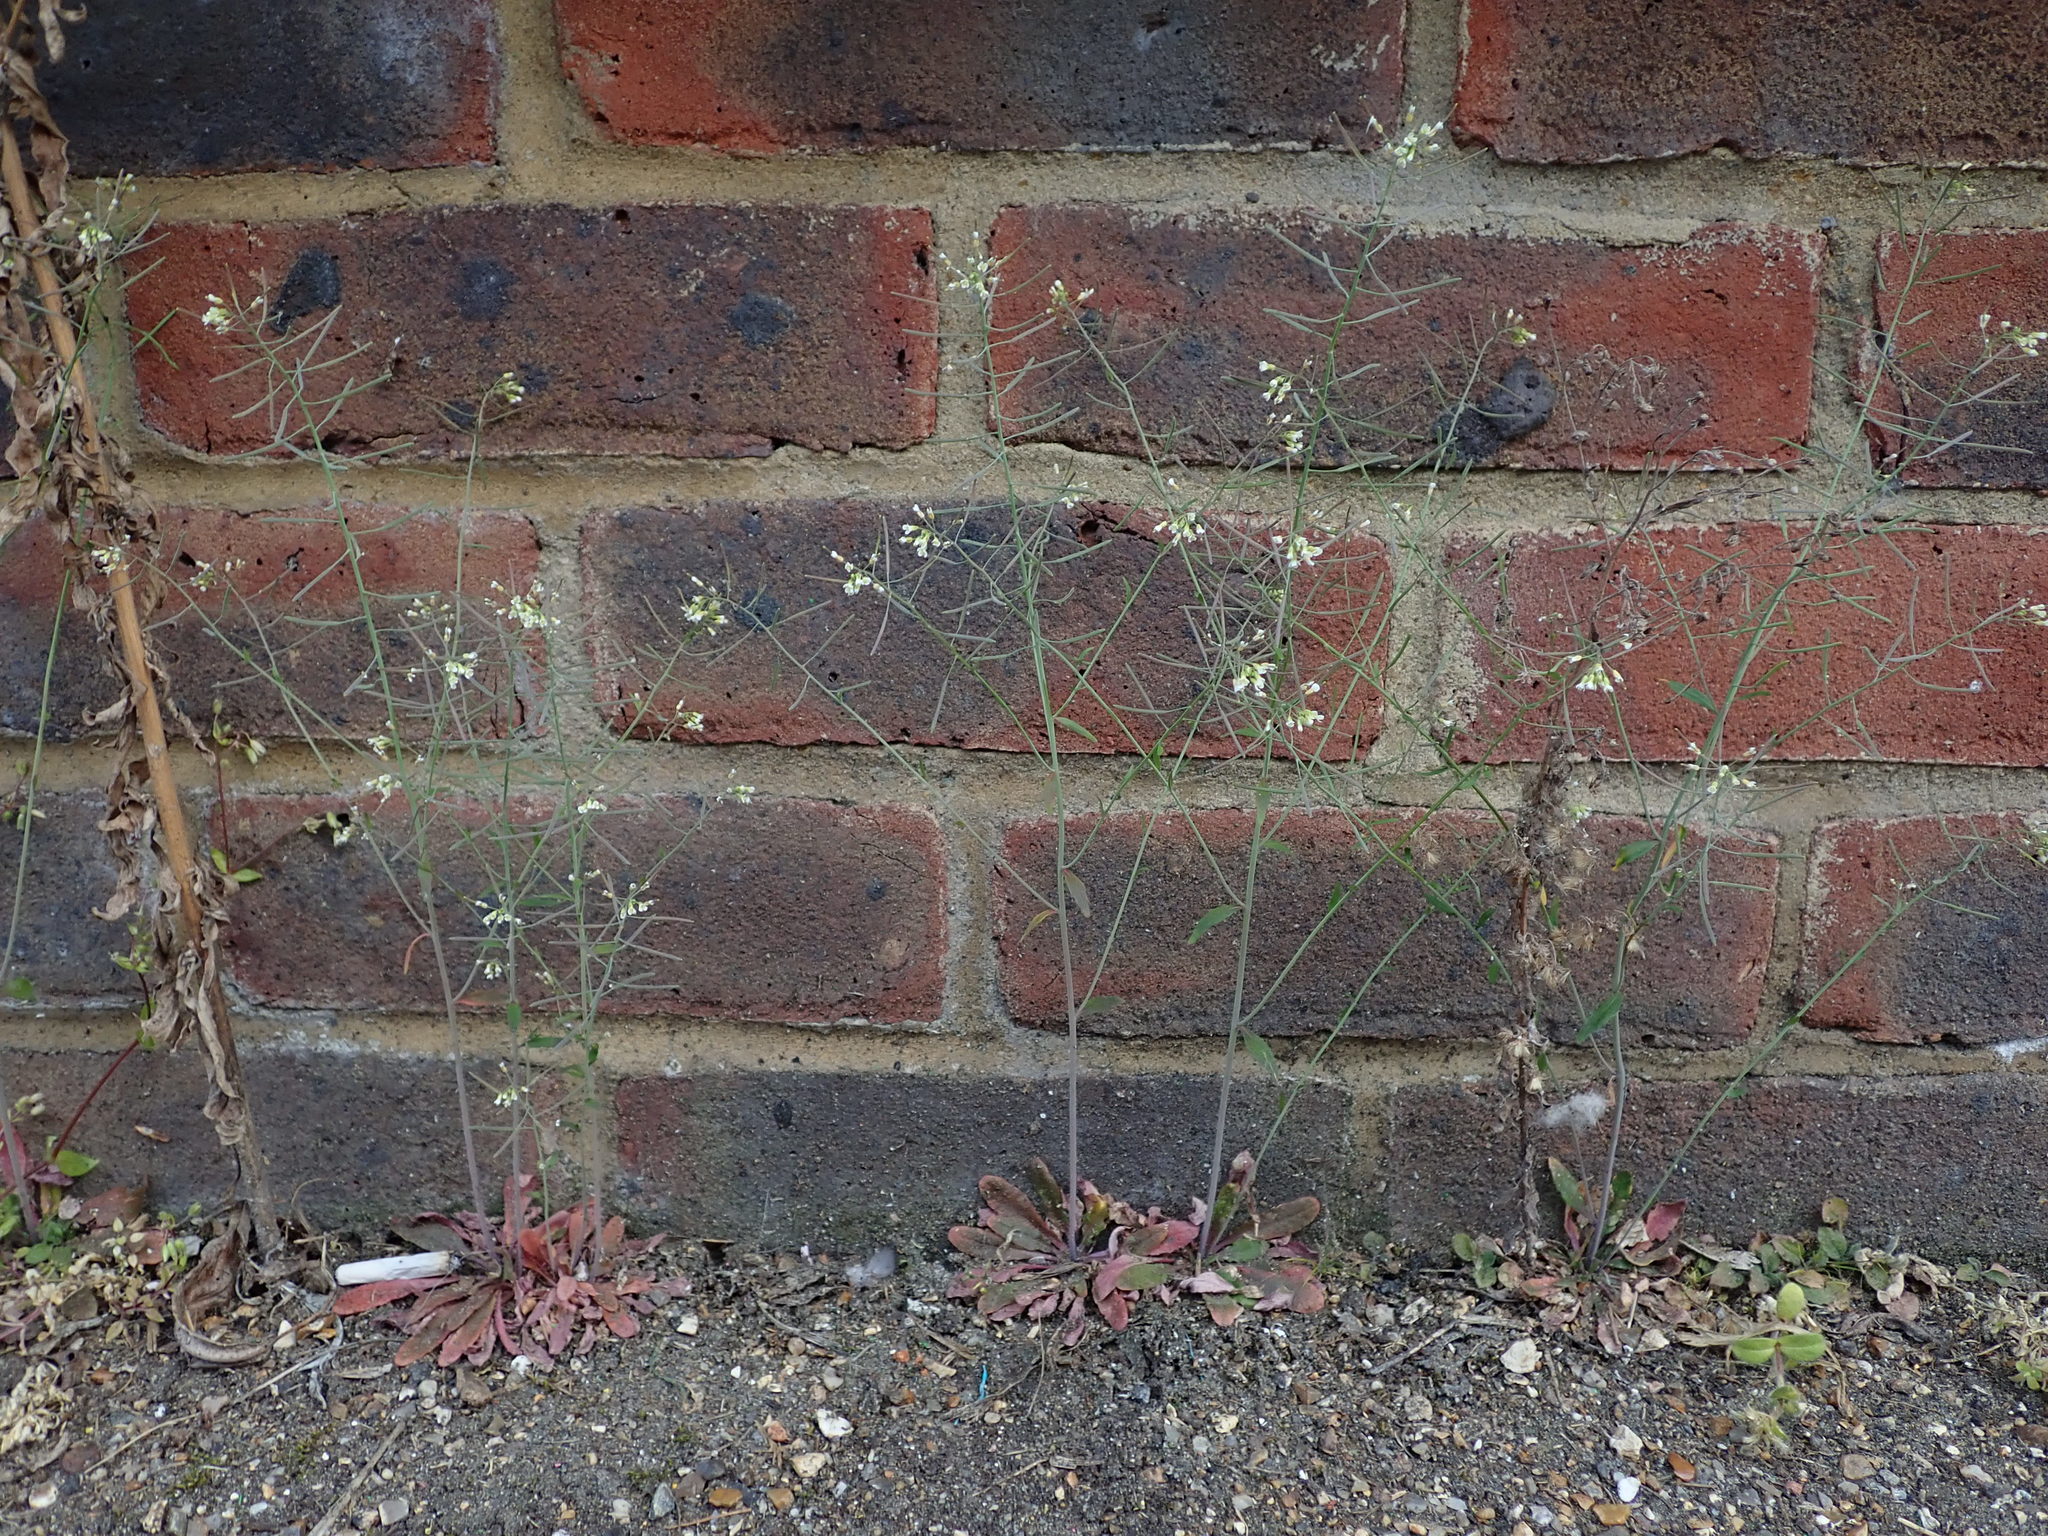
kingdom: Plantae
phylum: Tracheophyta
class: Magnoliopsida
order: Brassicales
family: Brassicaceae
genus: Arabidopsis
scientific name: Arabidopsis thaliana
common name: Thale cress
